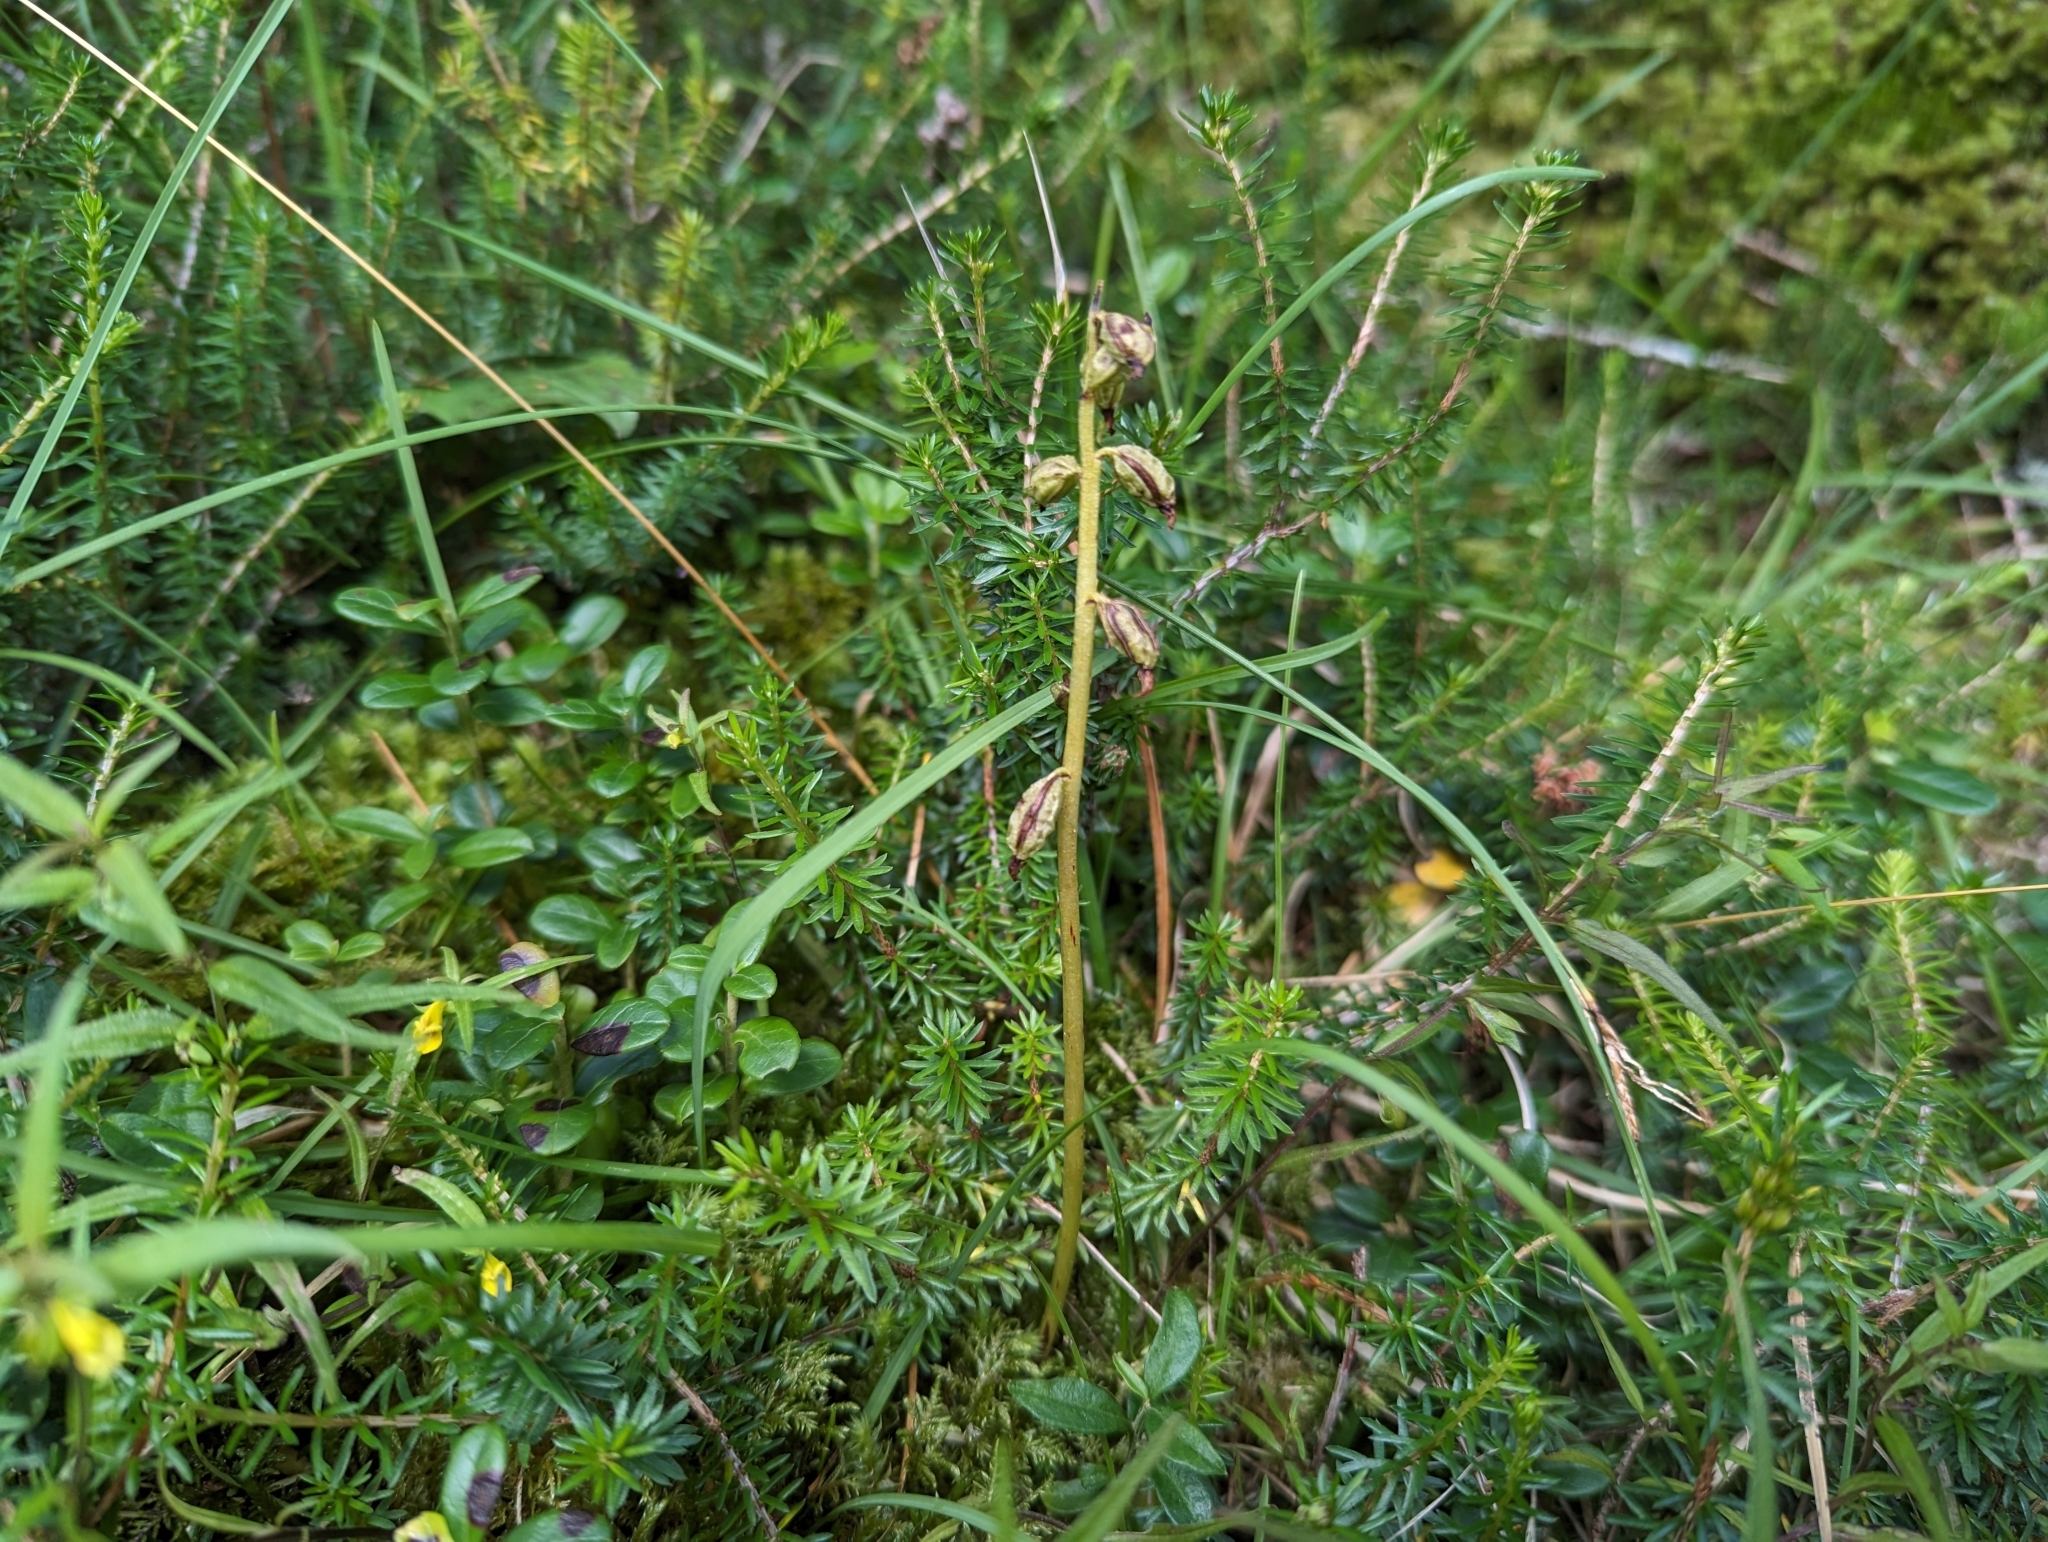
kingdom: Plantae
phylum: Tracheophyta
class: Liliopsida
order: Asparagales
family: Orchidaceae
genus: Corallorhiza
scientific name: Corallorhiza trifida
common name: Yellow coralroot
